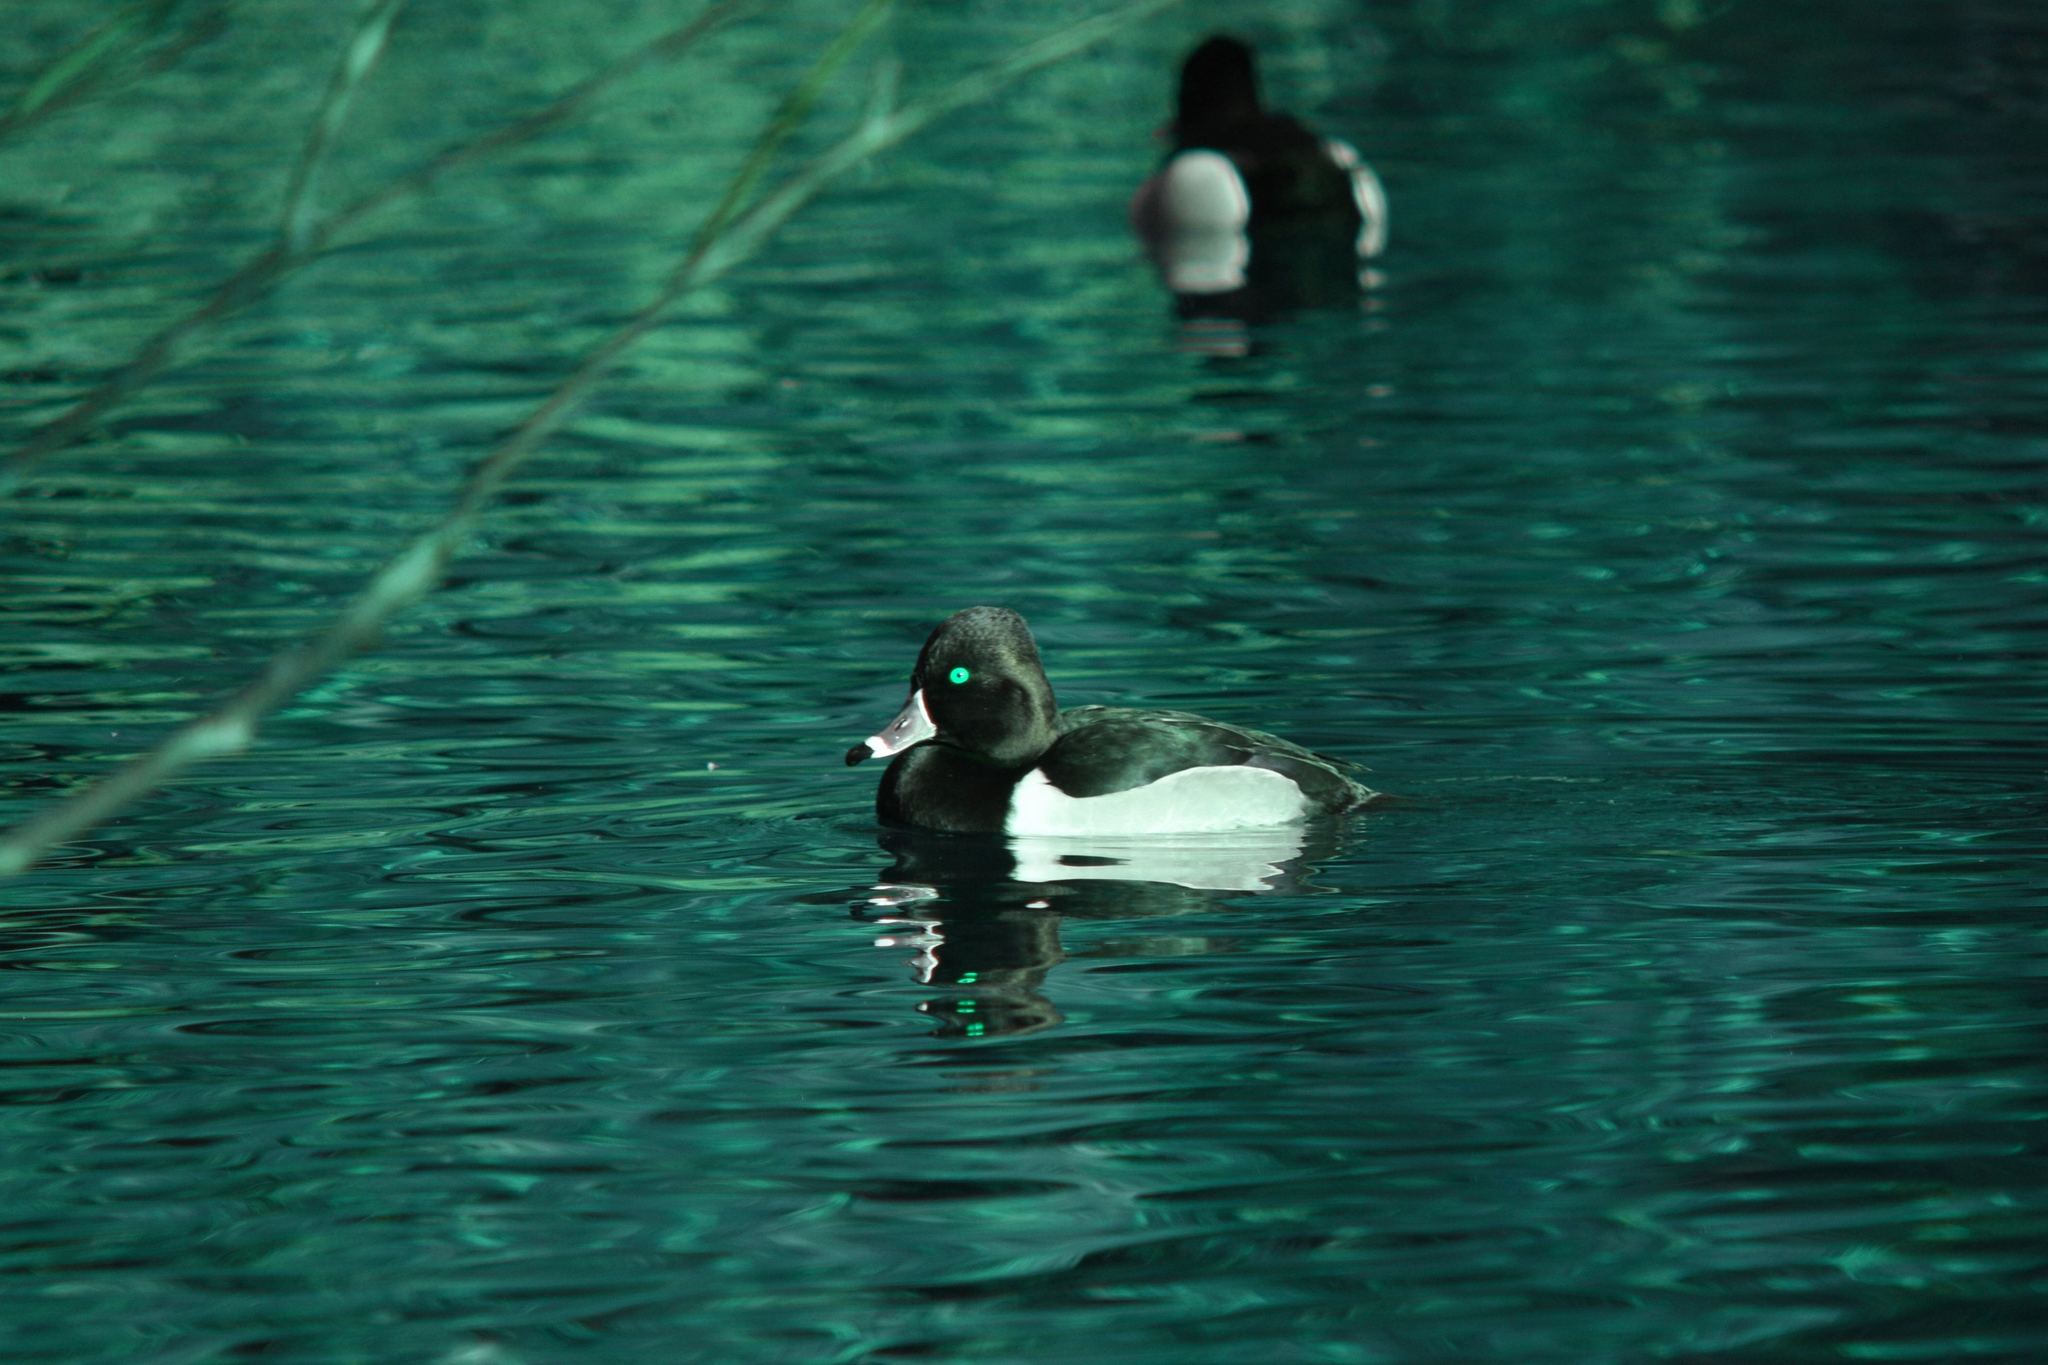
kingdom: Animalia
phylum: Chordata
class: Aves
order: Anseriformes
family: Anatidae
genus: Aythya
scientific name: Aythya collaris
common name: Ring-necked duck
